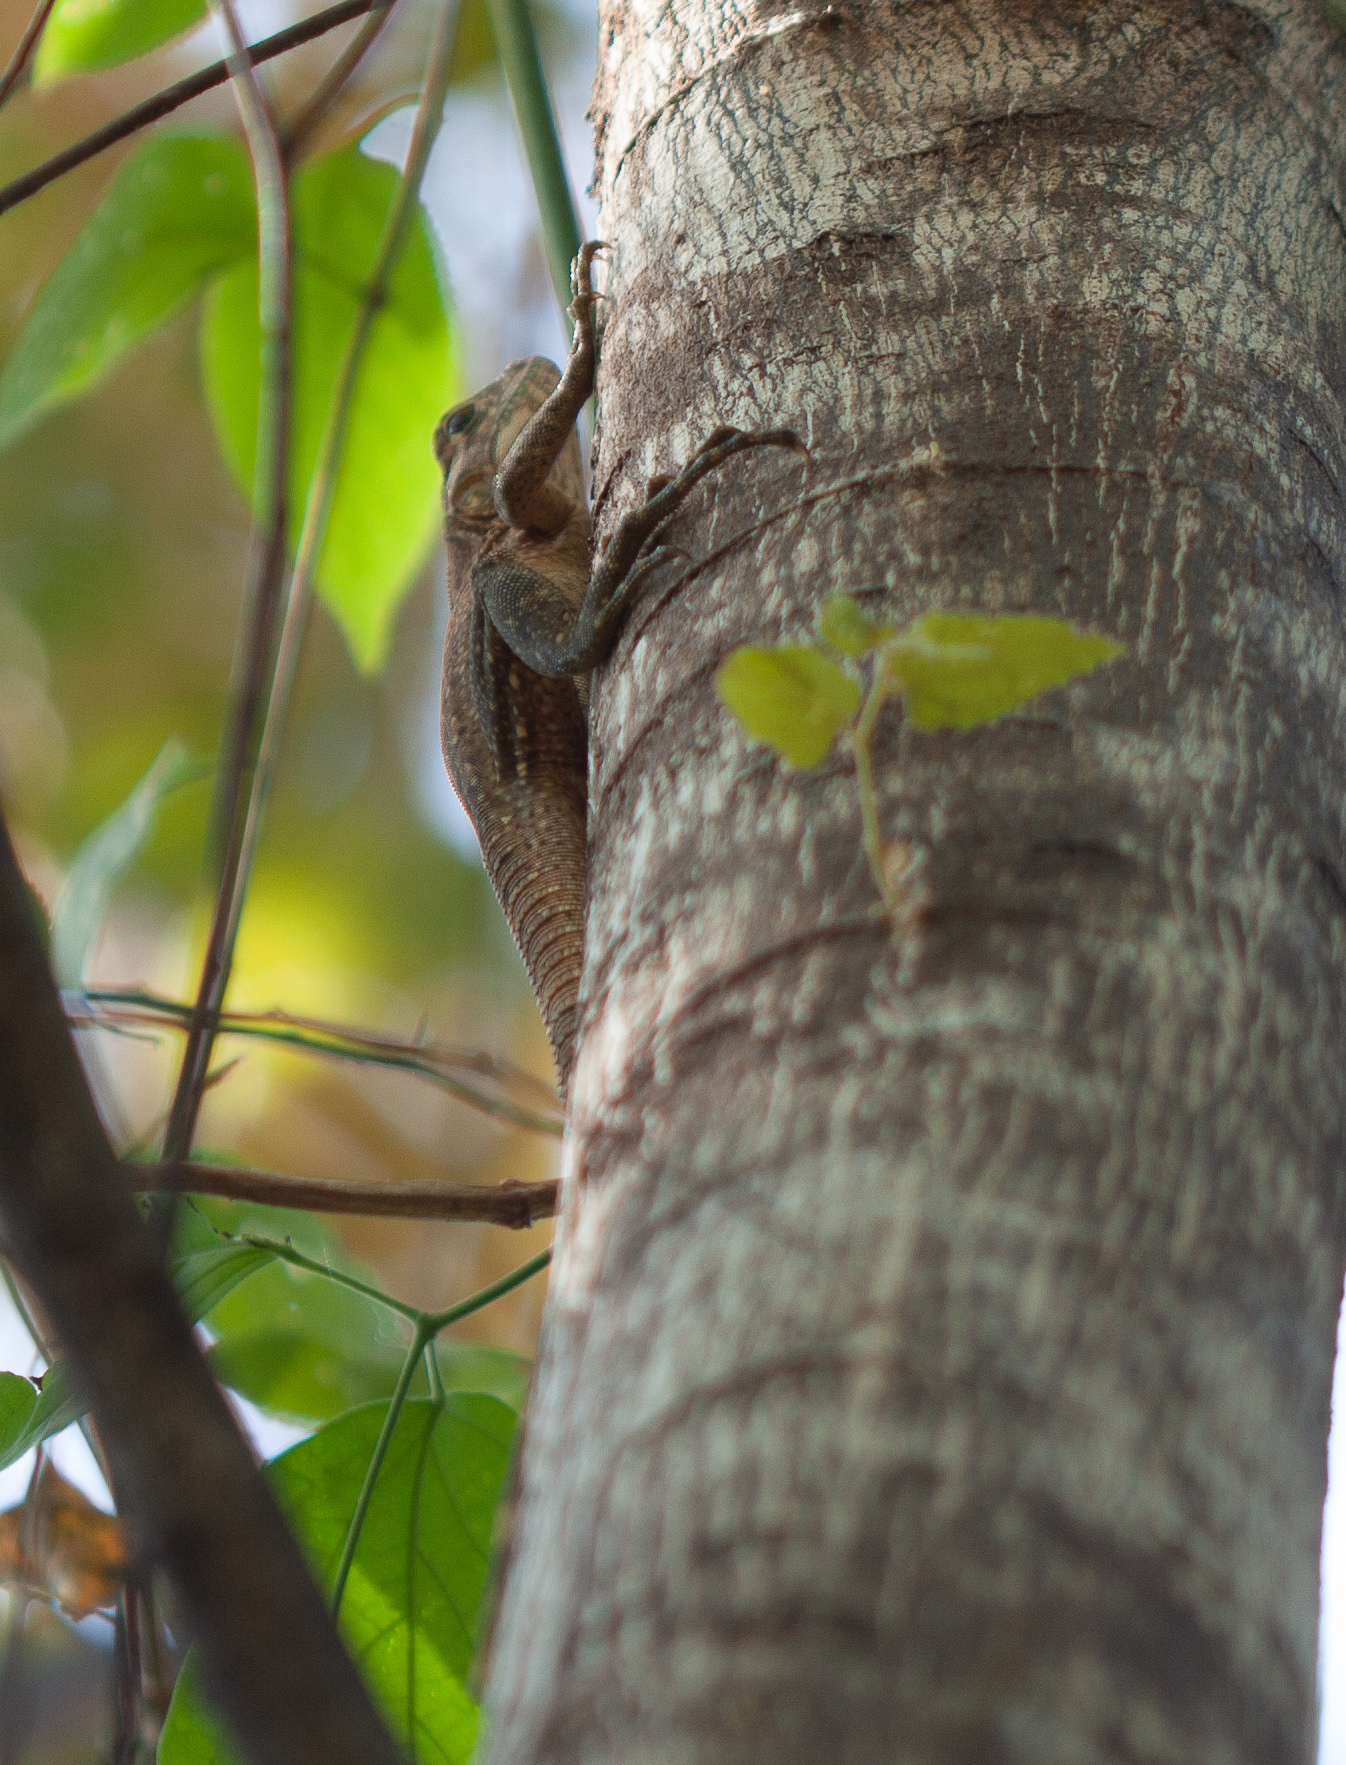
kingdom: Animalia
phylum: Chordata
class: Squamata
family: Iguanidae
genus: Ctenosaura
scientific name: Ctenosaura similis
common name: Black spiny-tailed iguana
